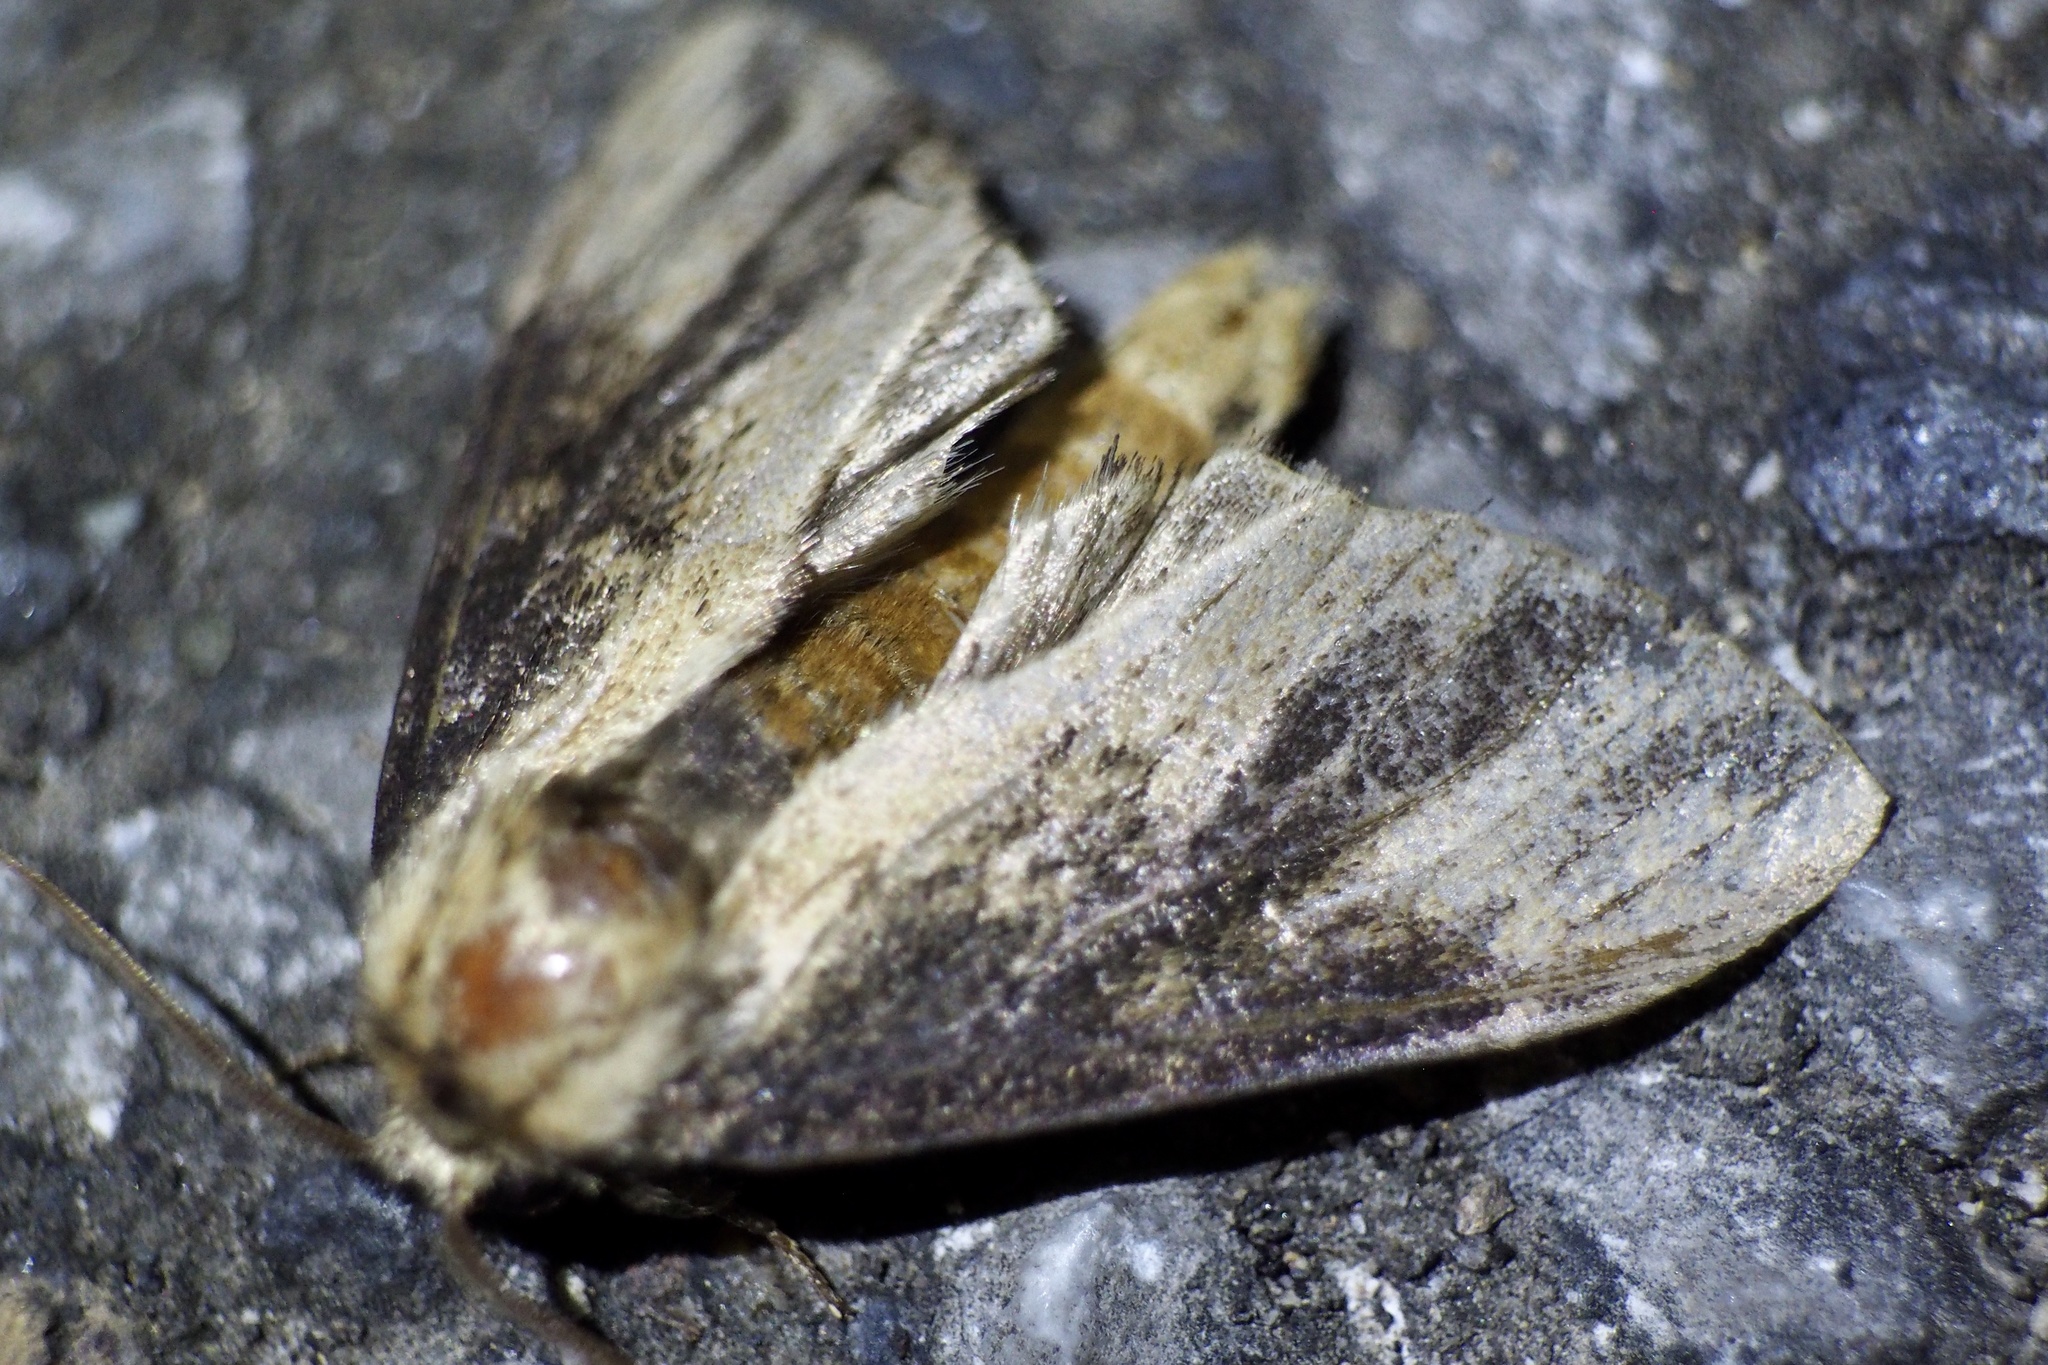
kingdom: Animalia
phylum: Arthropoda
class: Insecta
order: Lepidoptera
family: Notodontidae
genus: Hiradonta
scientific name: Hiradonta takaonis
